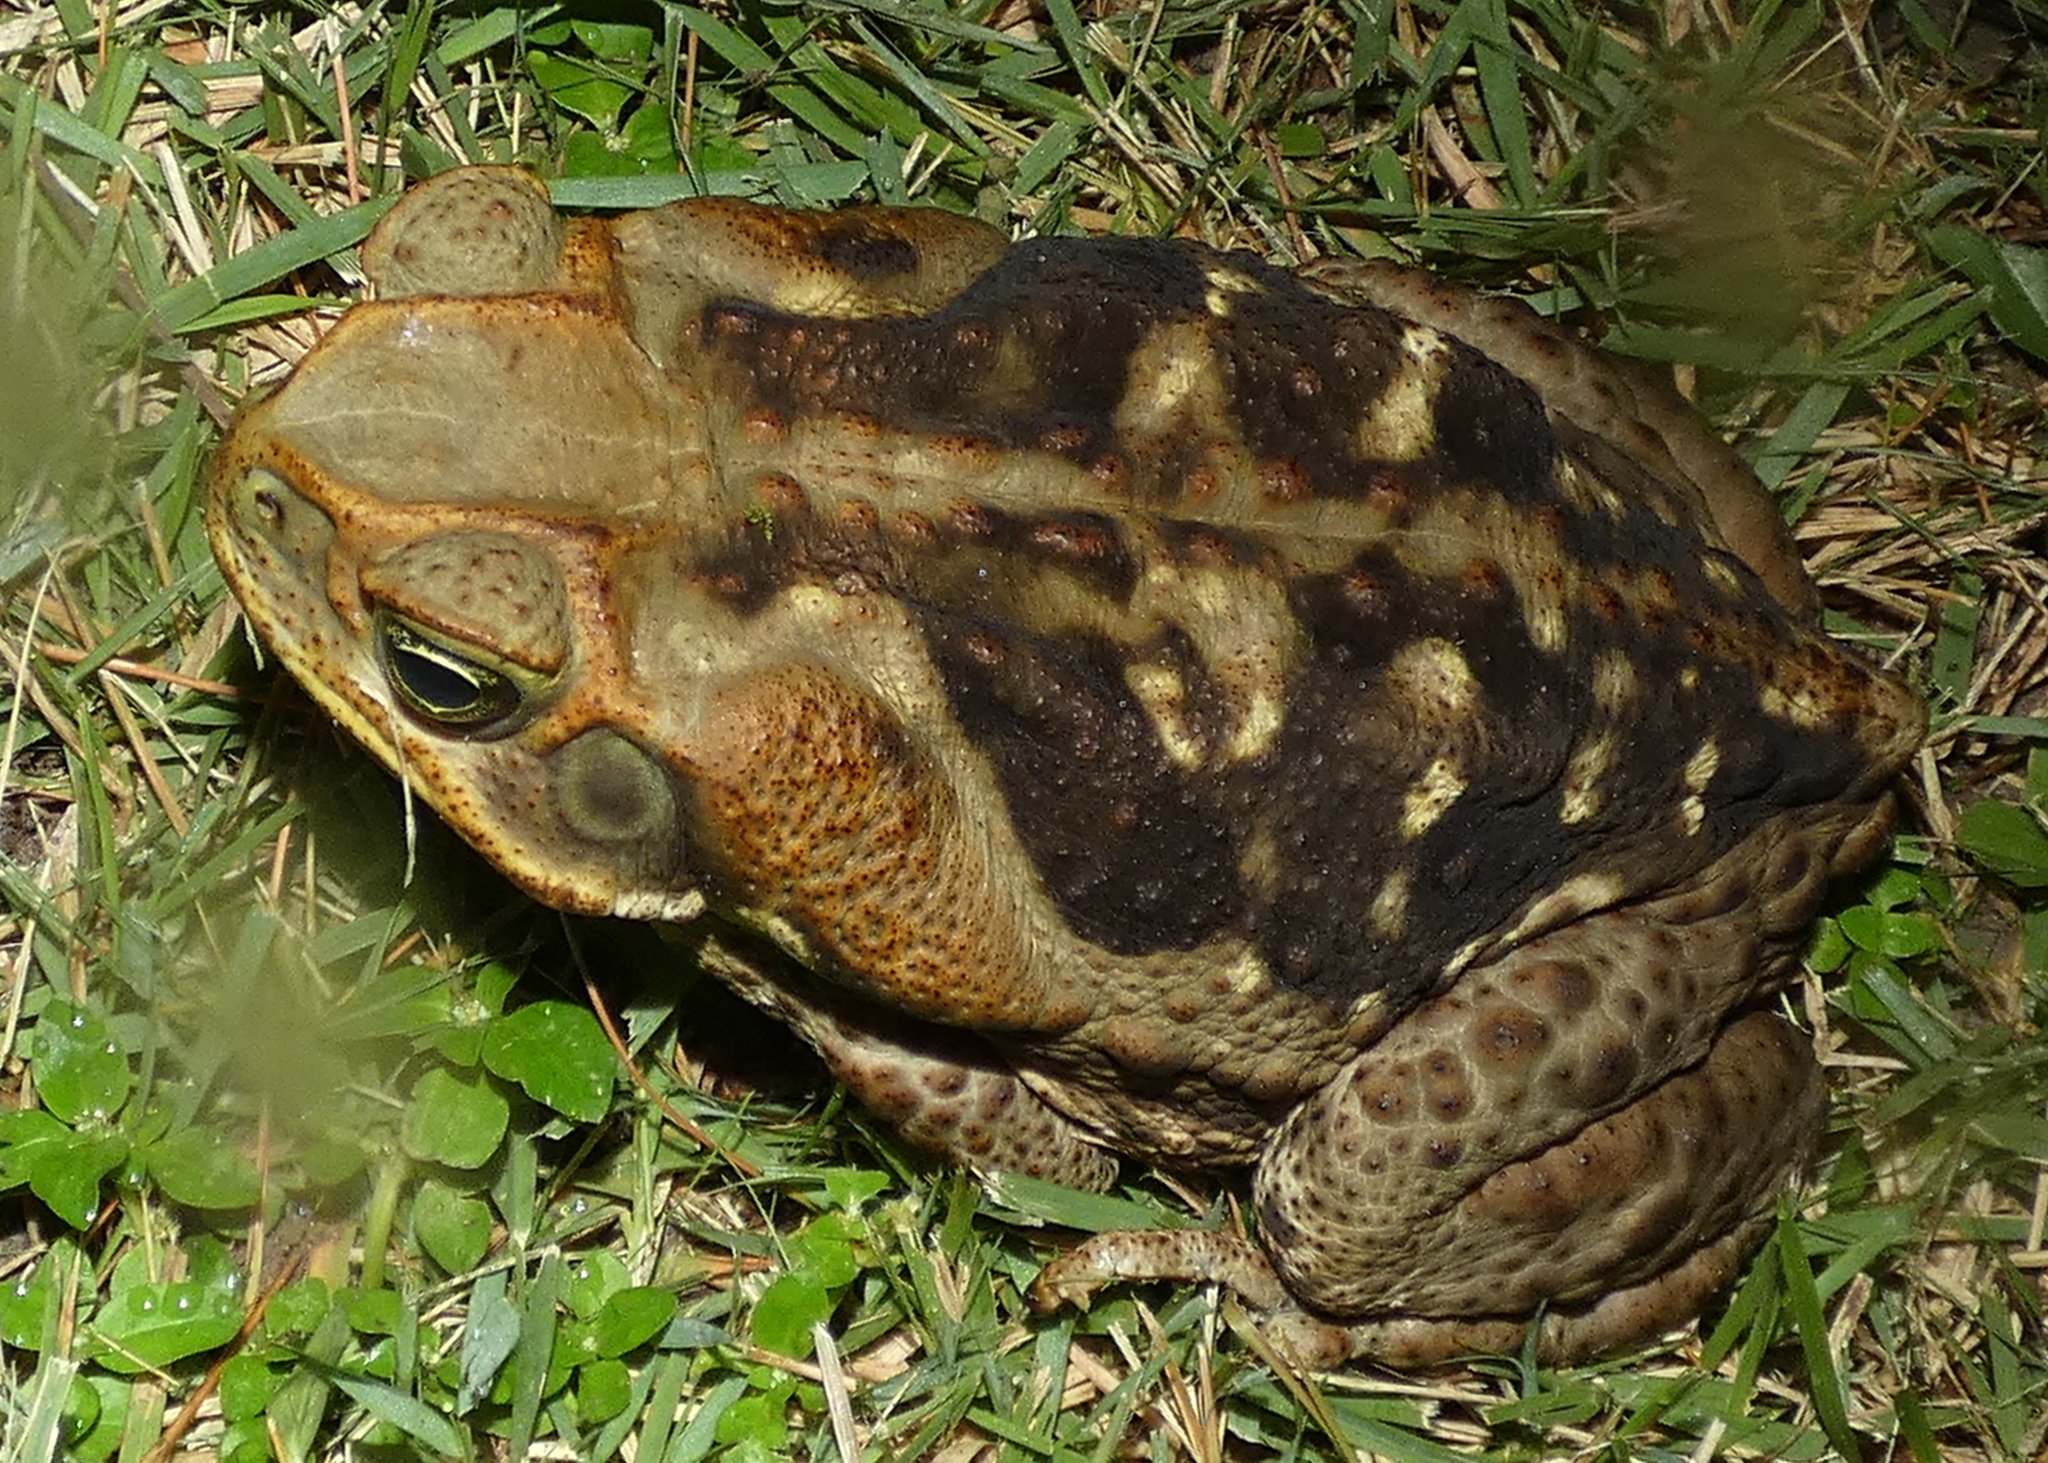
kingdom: Animalia
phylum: Chordata
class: Amphibia
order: Anura
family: Bufonidae
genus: Rhinella
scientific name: Rhinella diptycha
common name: Cope's toad
